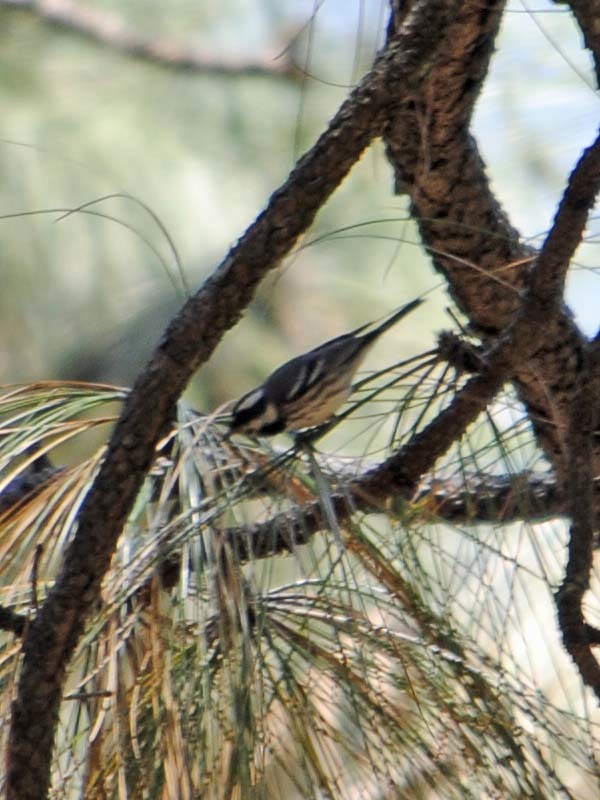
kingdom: Animalia
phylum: Chordata
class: Aves
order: Passeriformes
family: Parulidae
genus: Setophaga
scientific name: Setophaga nigrescens
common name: Black-throated gray warbler
